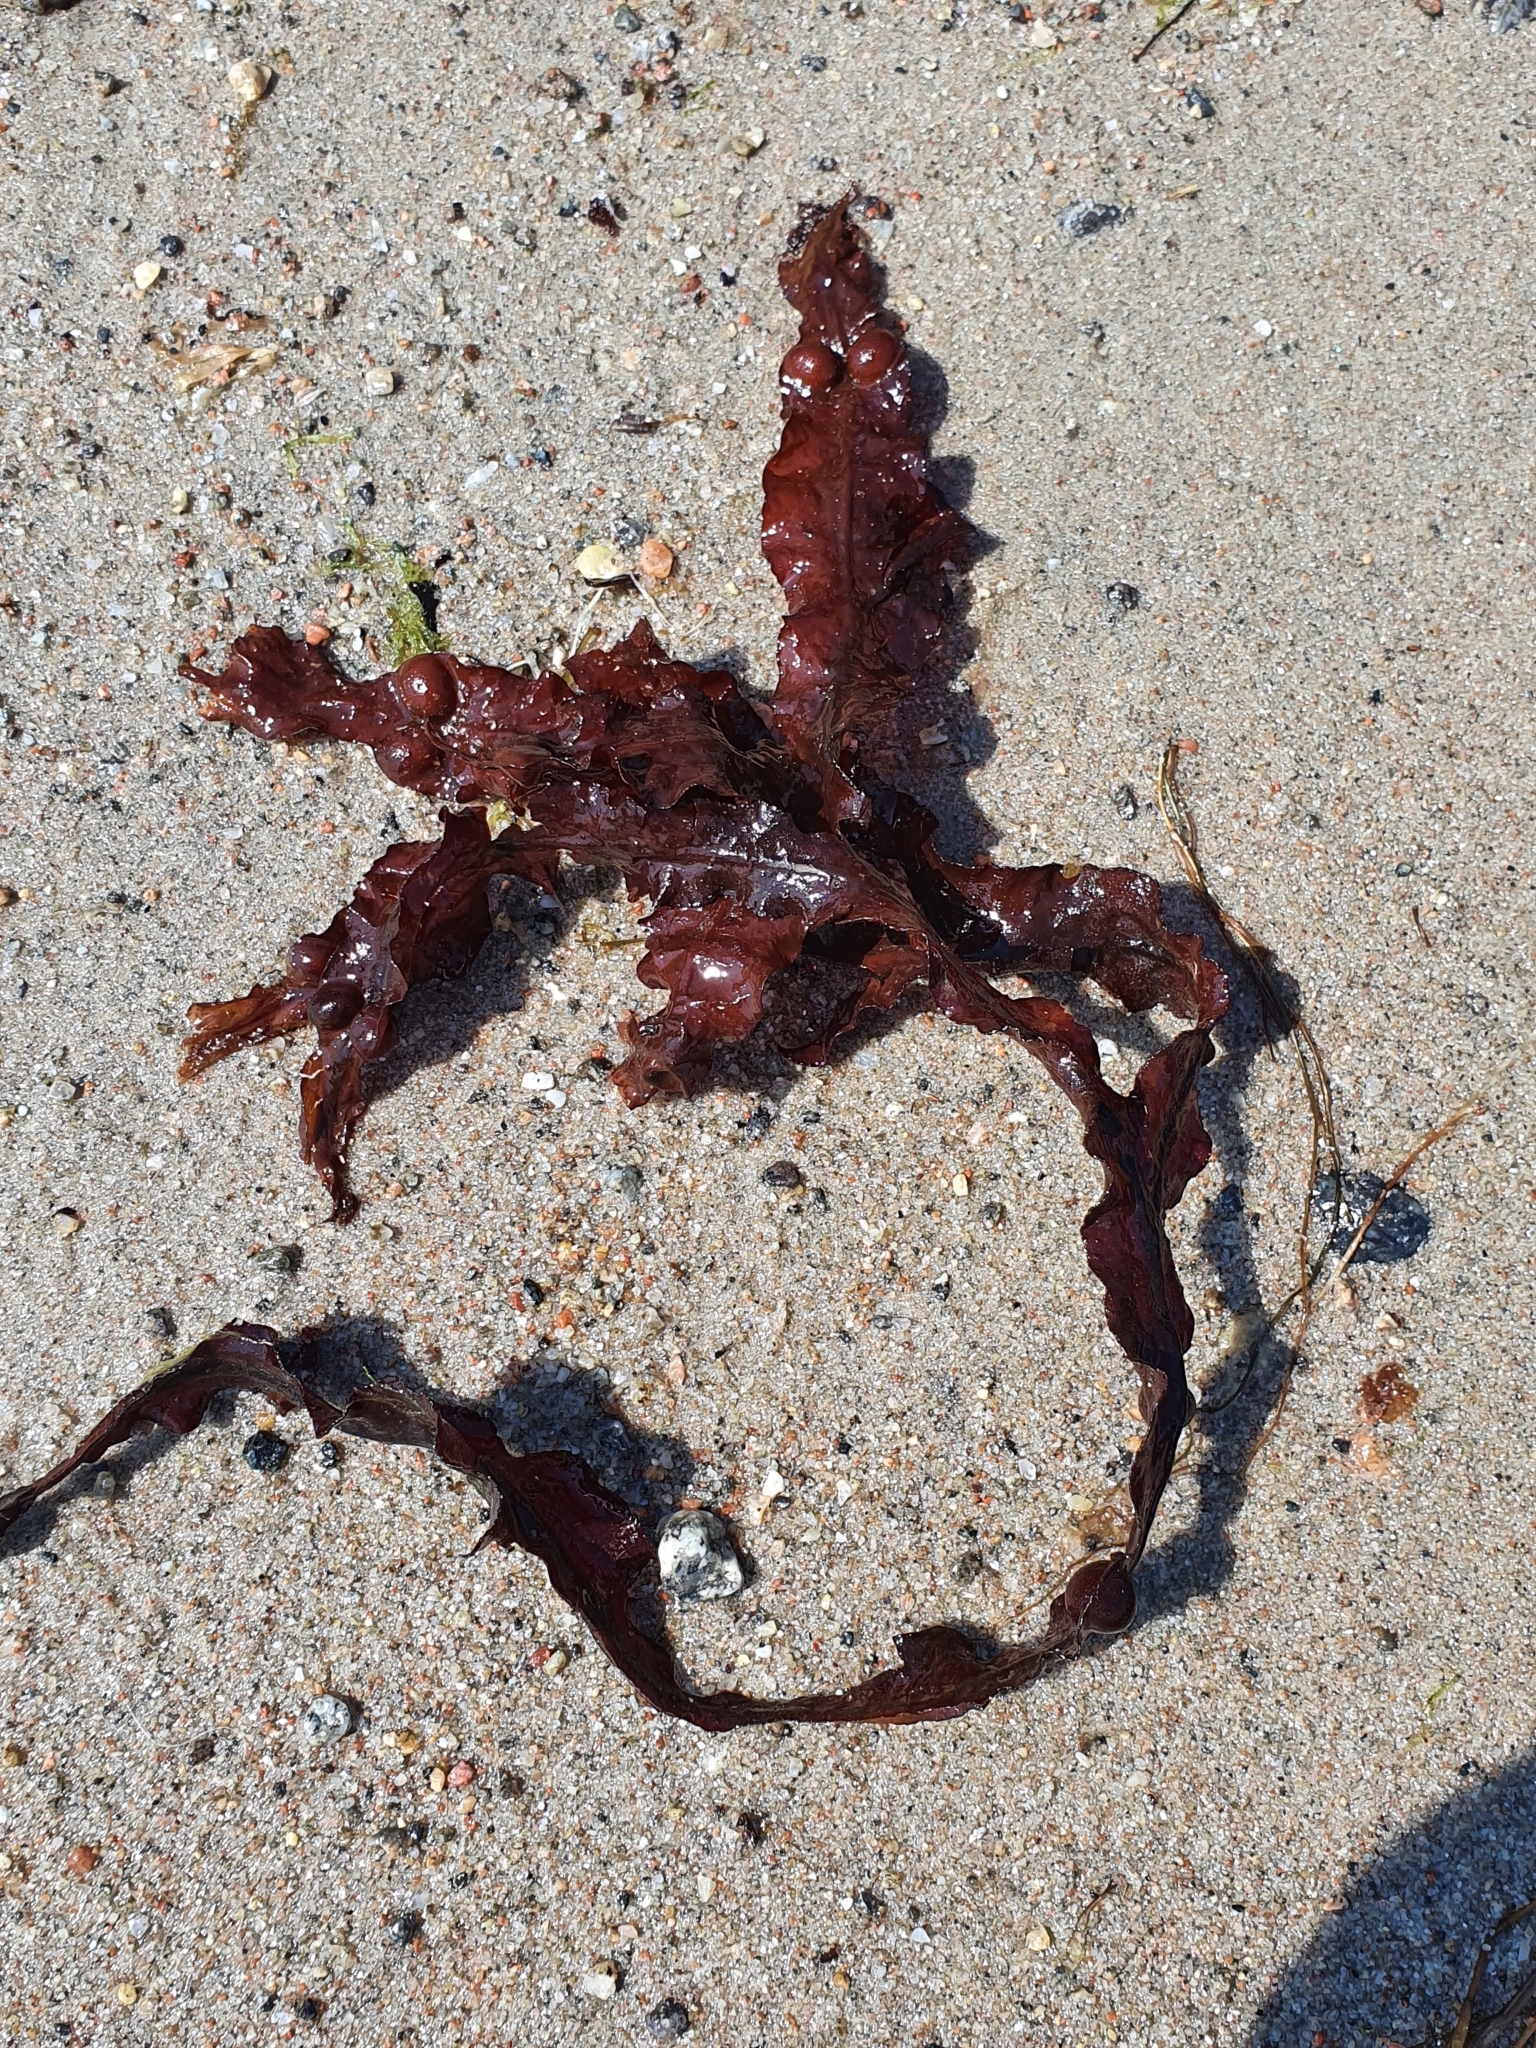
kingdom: Chromista
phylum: Ochrophyta
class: Phaeophyceae
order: Fucales
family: Fucaceae
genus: Fucus
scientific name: Fucus vesiculosus
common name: Bladder wrack
